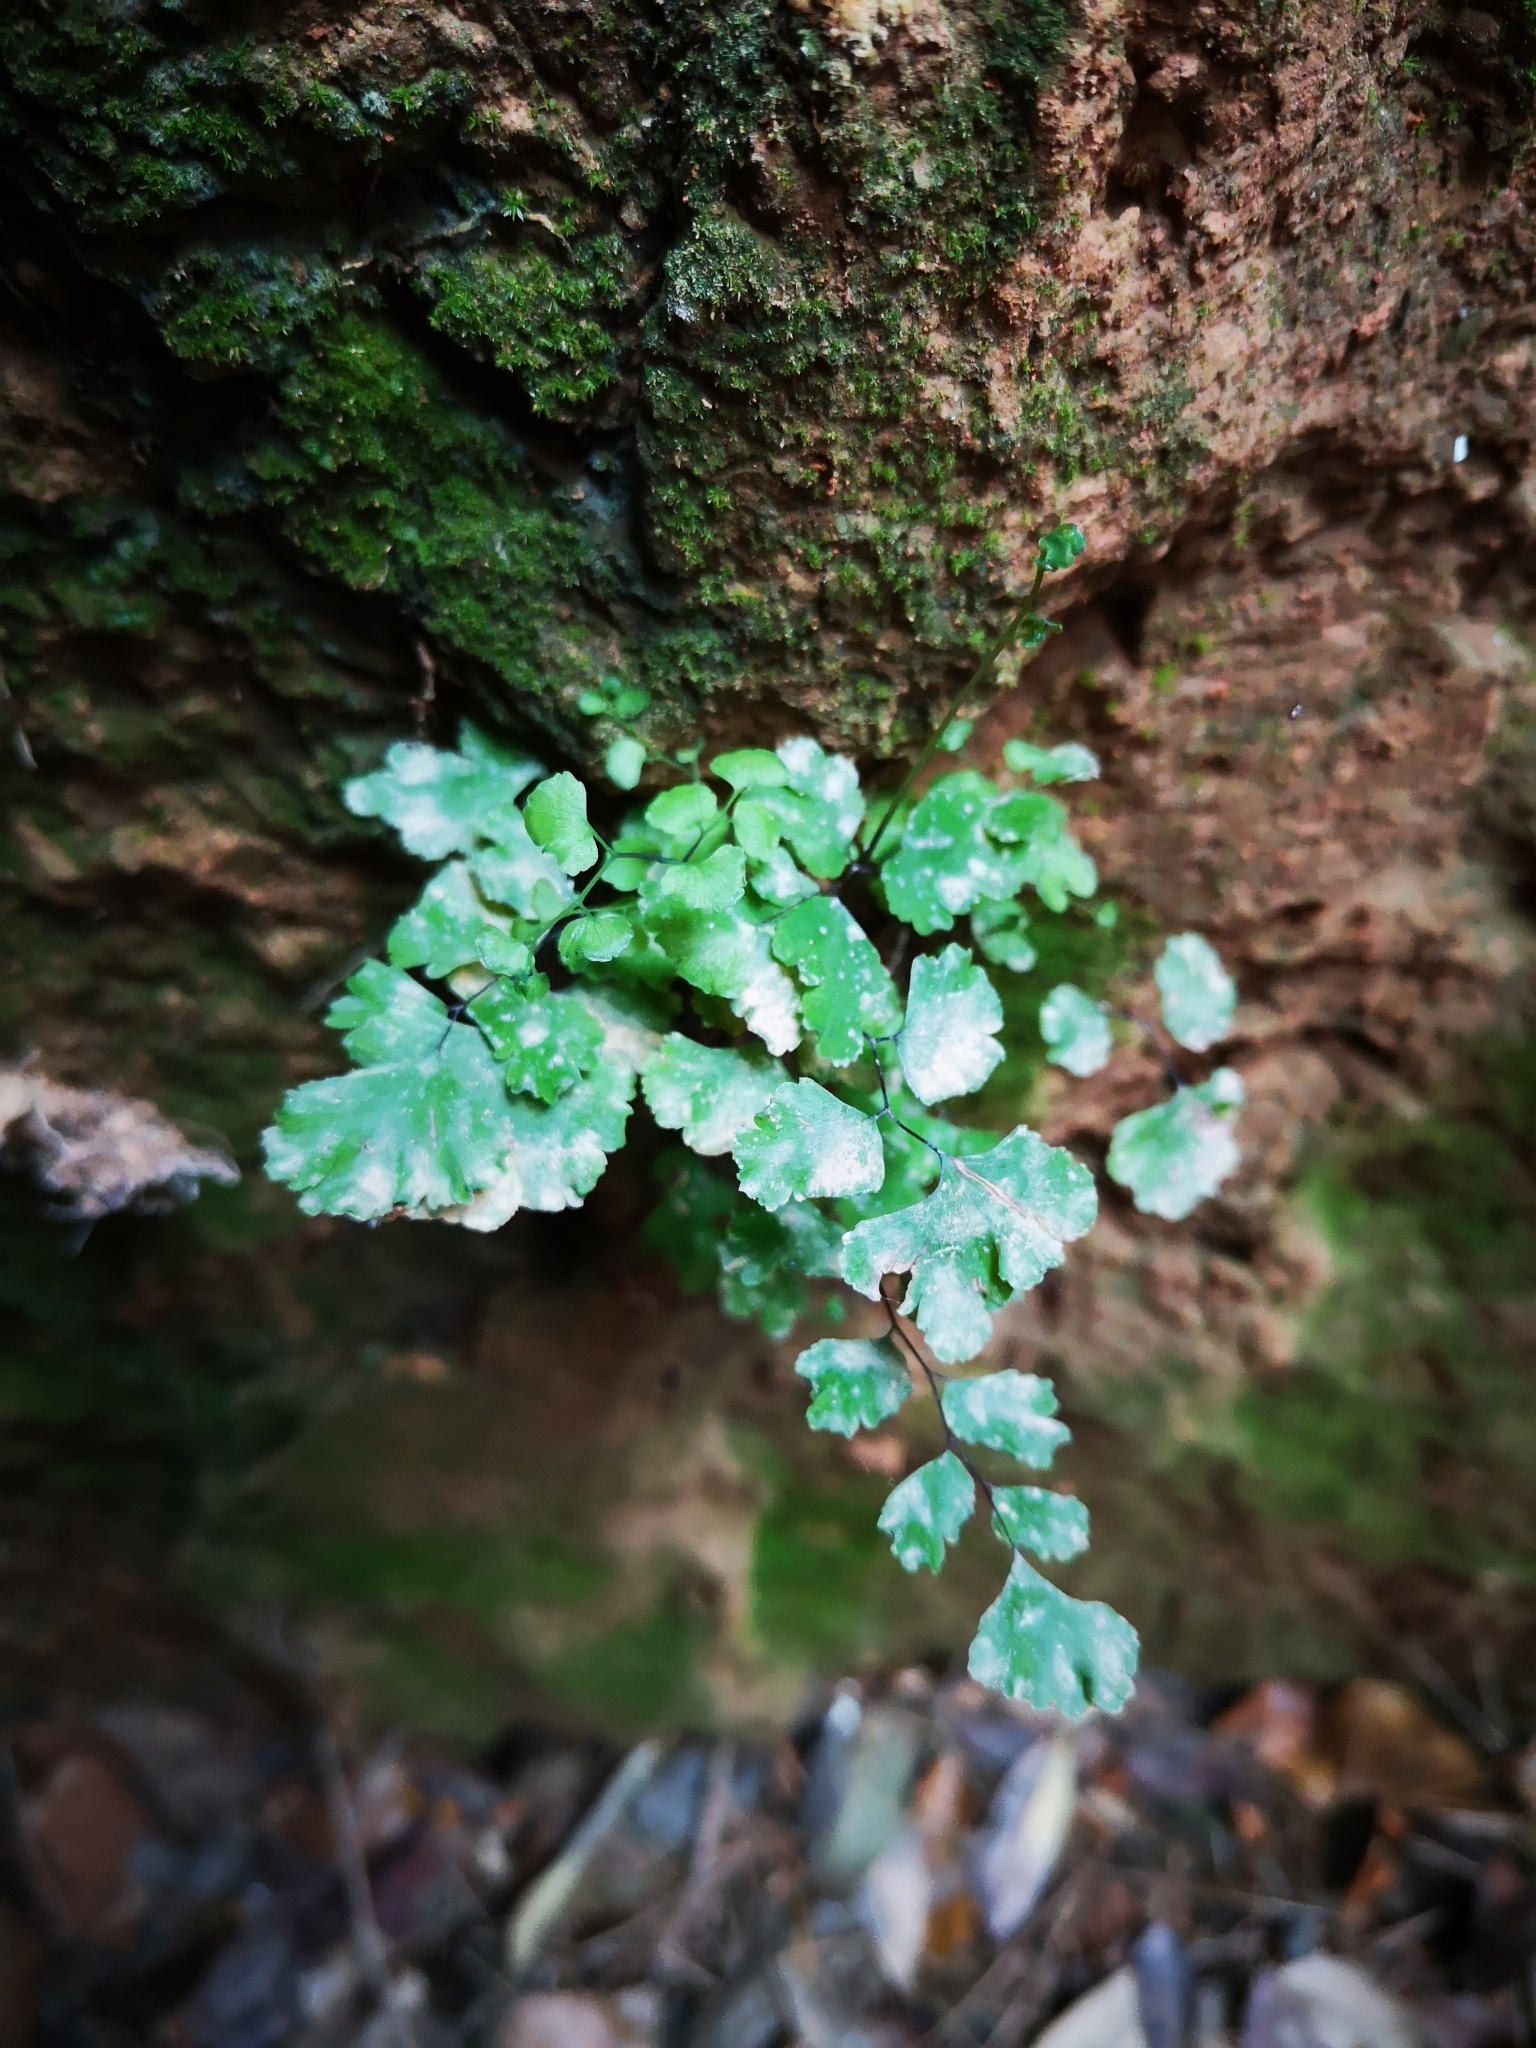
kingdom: Plantae
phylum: Tracheophyta
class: Polypodiopsida
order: Polypodiales
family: Pteridaceae
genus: Adiantum
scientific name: Adiantum capillus-veneris
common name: Maidenhair fern
